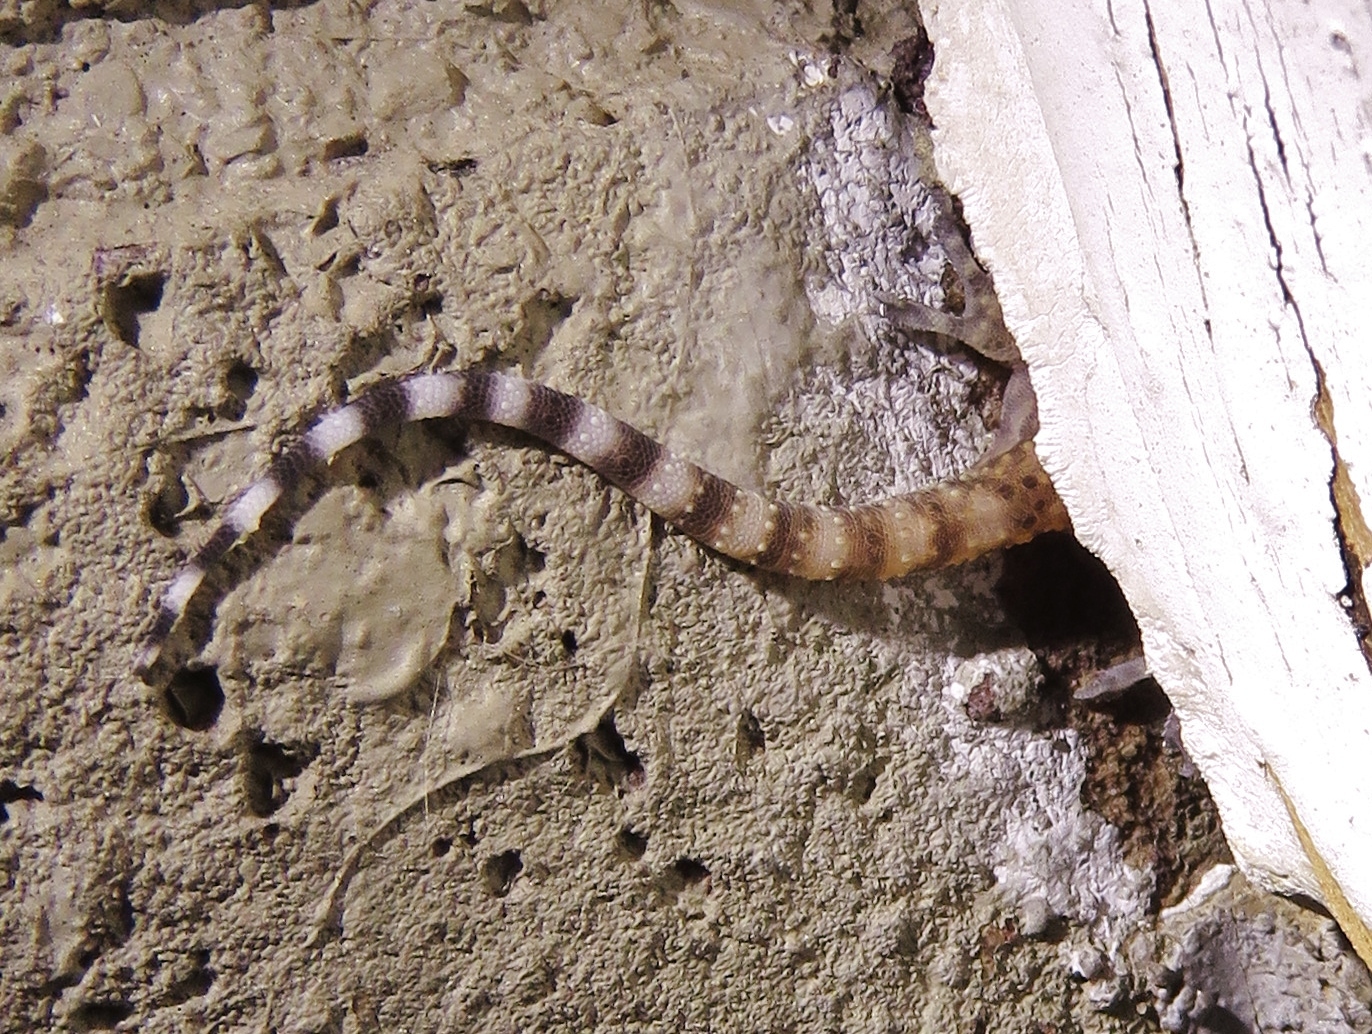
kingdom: Animalia
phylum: Chordata
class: Squamata
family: Gekkonidae
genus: Hemidactylus
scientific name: Hemidactylus turcicus
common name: Turkish gecko
